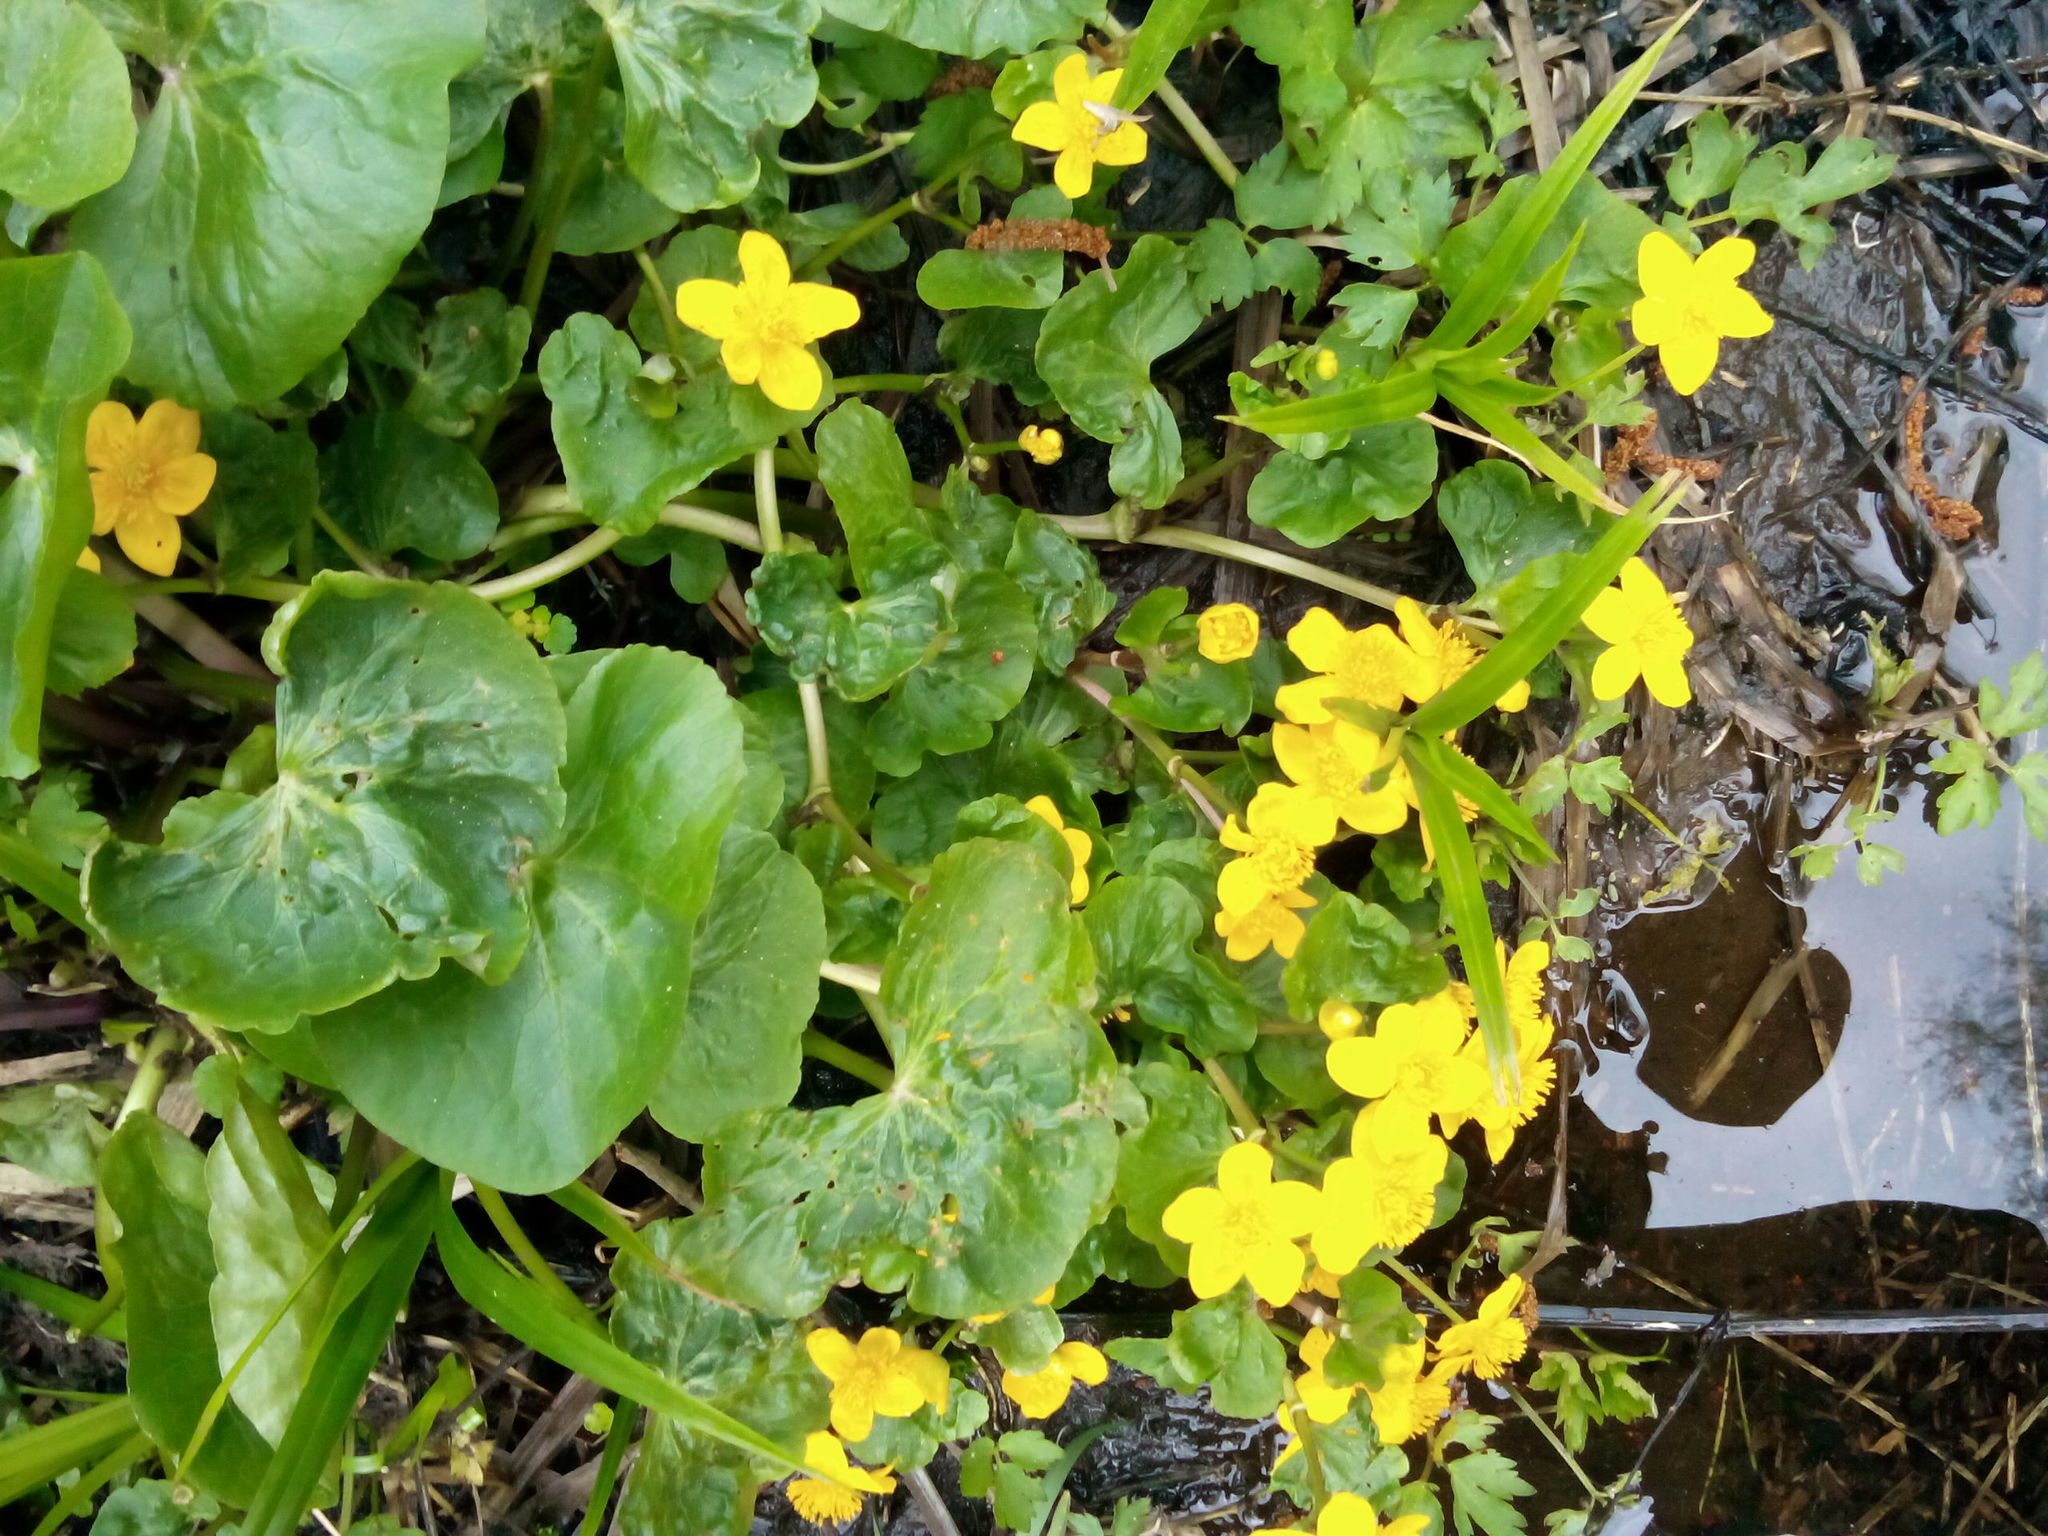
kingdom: Plantae
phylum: Tracheophyta
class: Magnoliopsida
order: Ranunculales
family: Ranunculaceae
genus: Caltha
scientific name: Caltha palustris
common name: Marsh marigold
